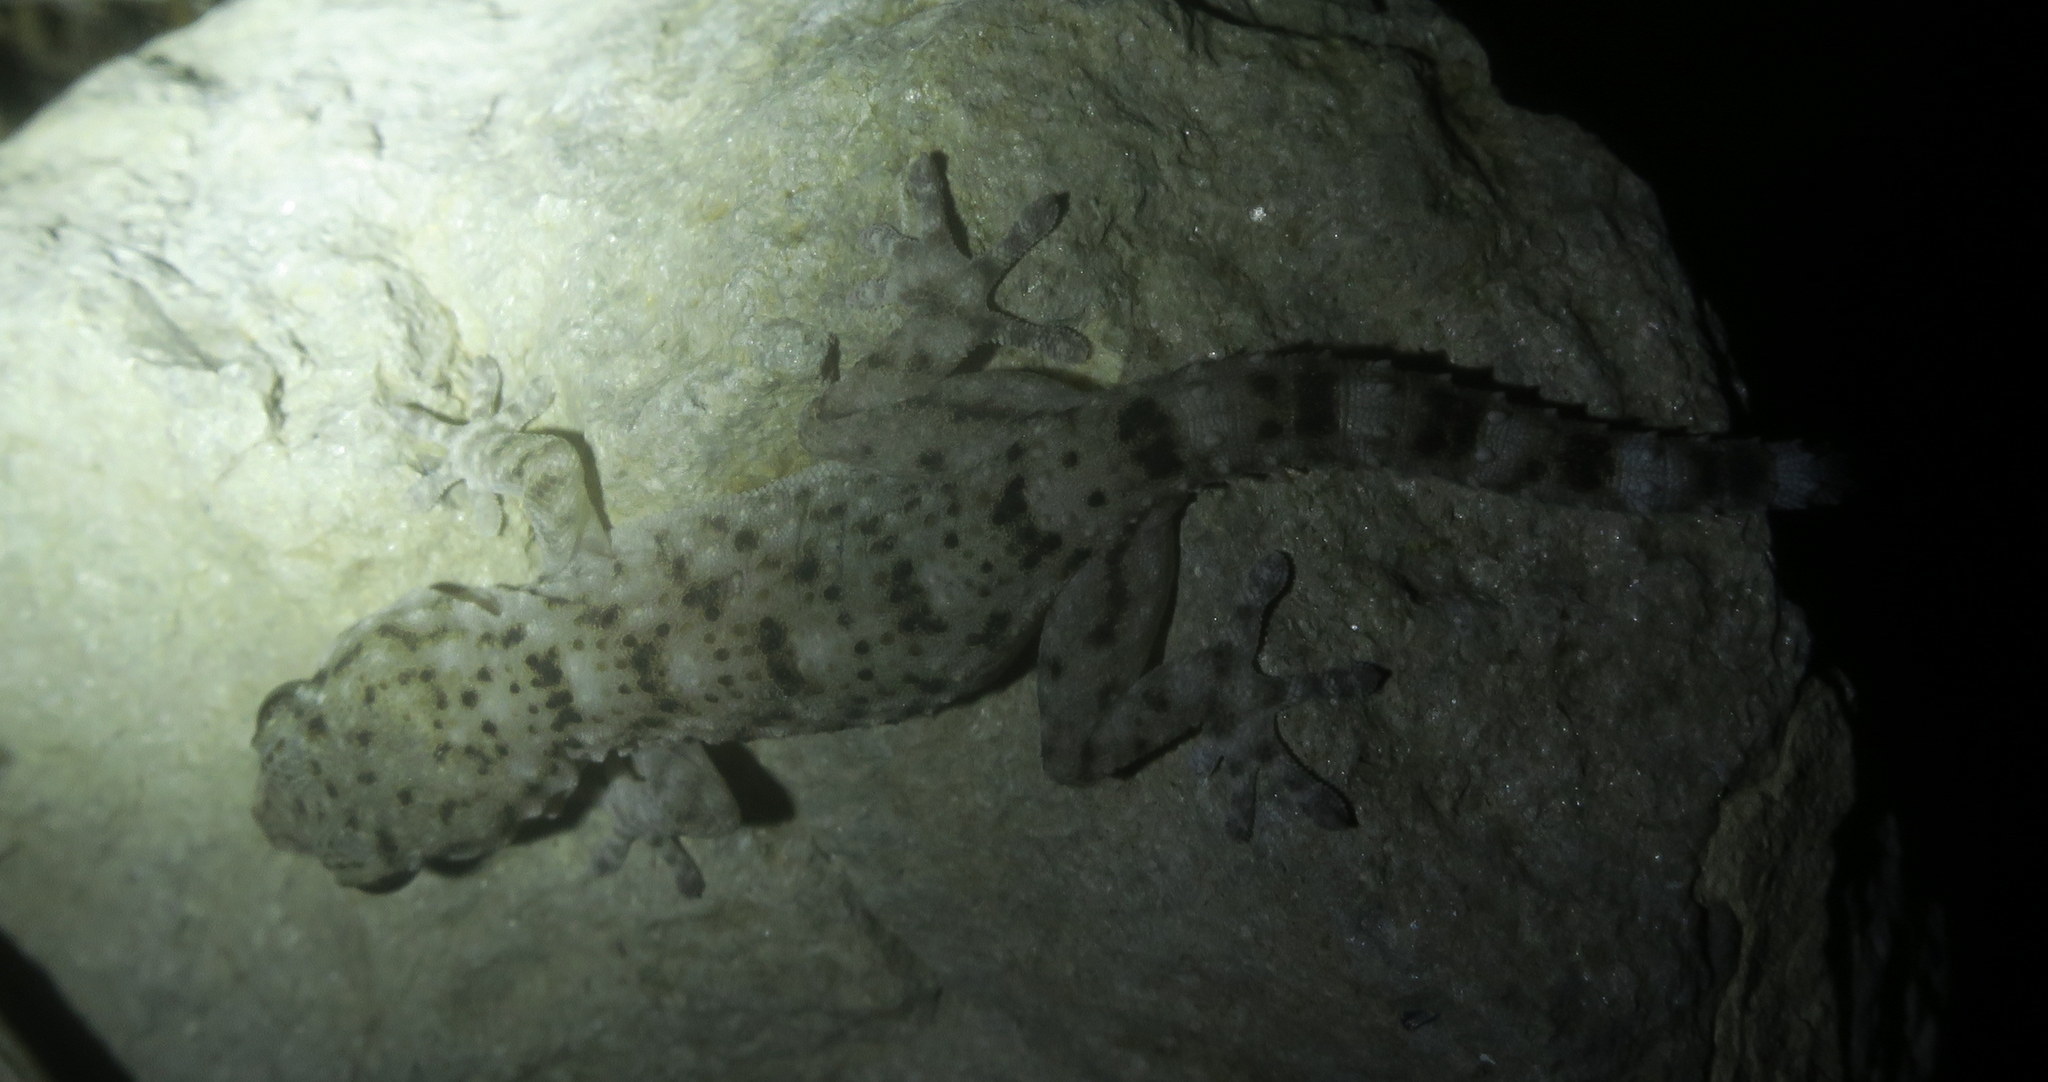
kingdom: Animalia
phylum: Chordata
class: Squamata
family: Phyllodactylidae
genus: Tarentola
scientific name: Tarentola delalandii
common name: Tenerife wall gecko
